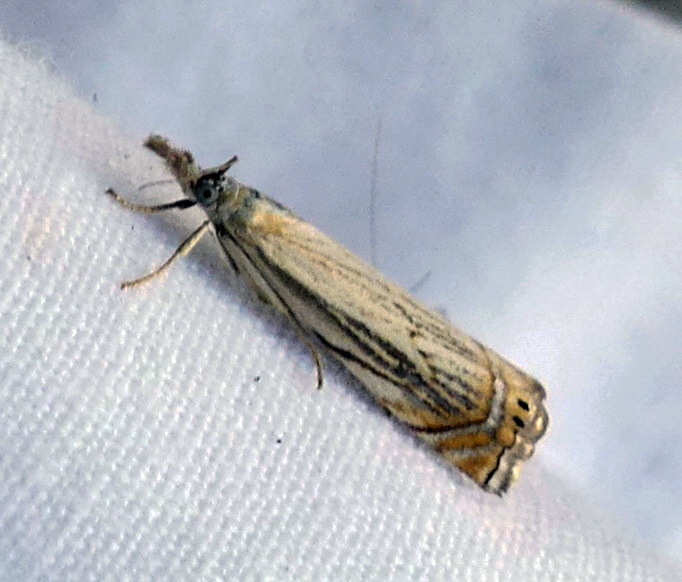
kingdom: Animalia
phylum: Arthropoda
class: Insecta
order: Lepidoptera
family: Crambidae
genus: Chrysoteuchia
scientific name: Chrysoteuchia topiarius
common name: Topiary grass-veneer
